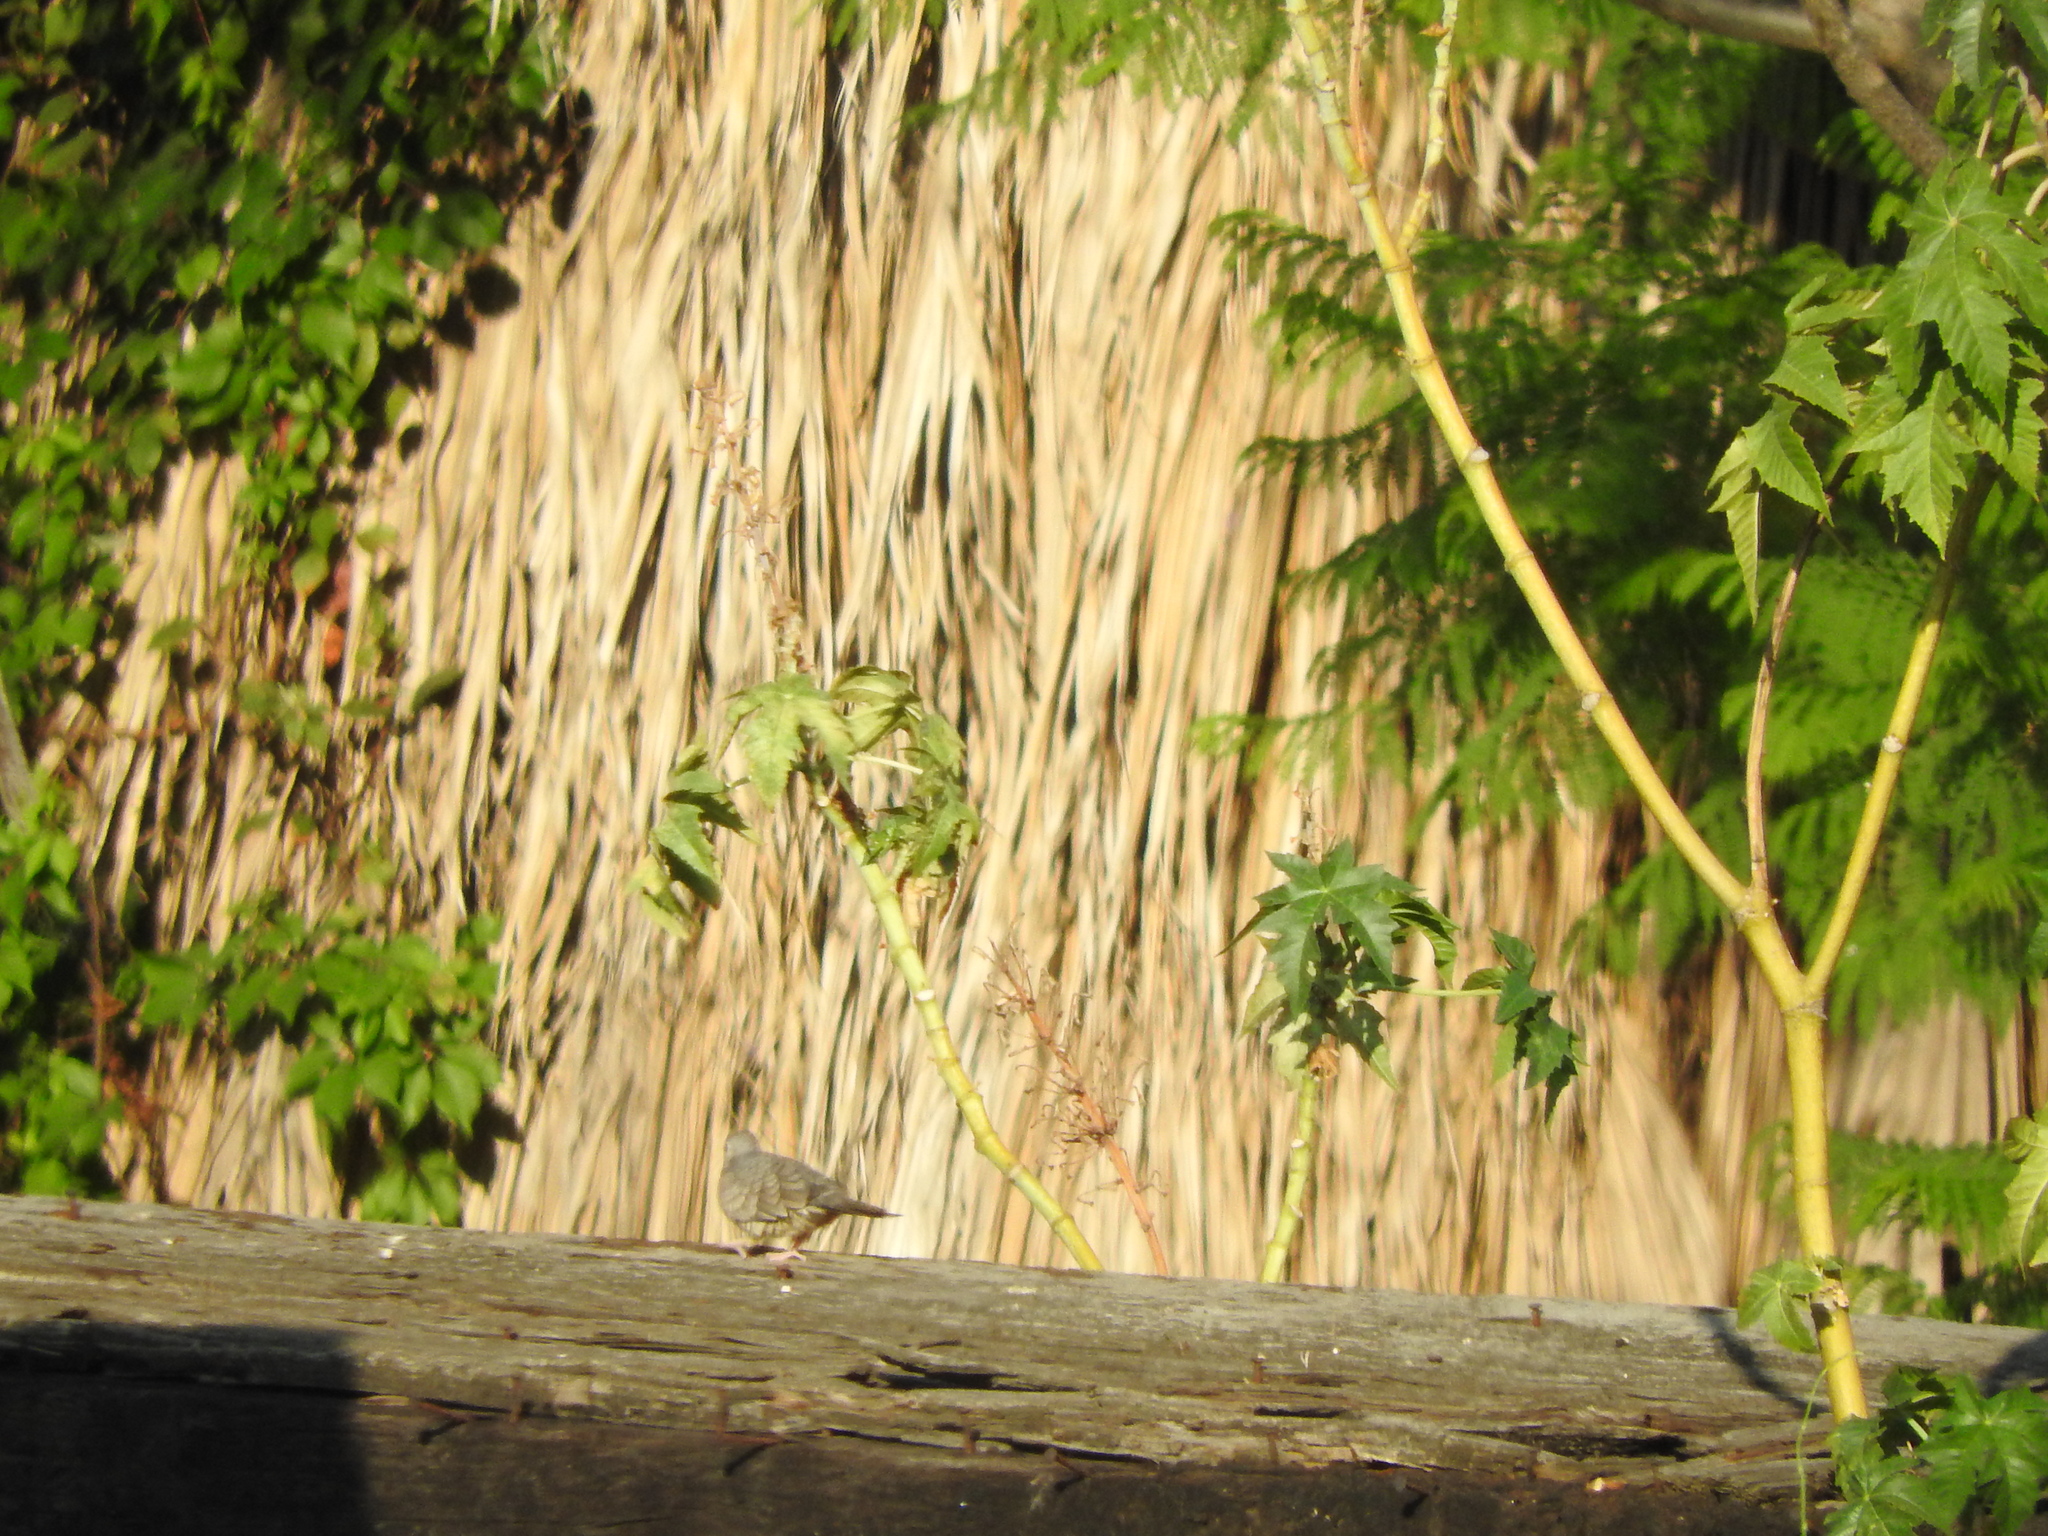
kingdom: Animalia
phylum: Chordata
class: Aves
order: Columbiformes
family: Columbidae
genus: Columbina
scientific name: Columbina inca
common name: Inca dove
